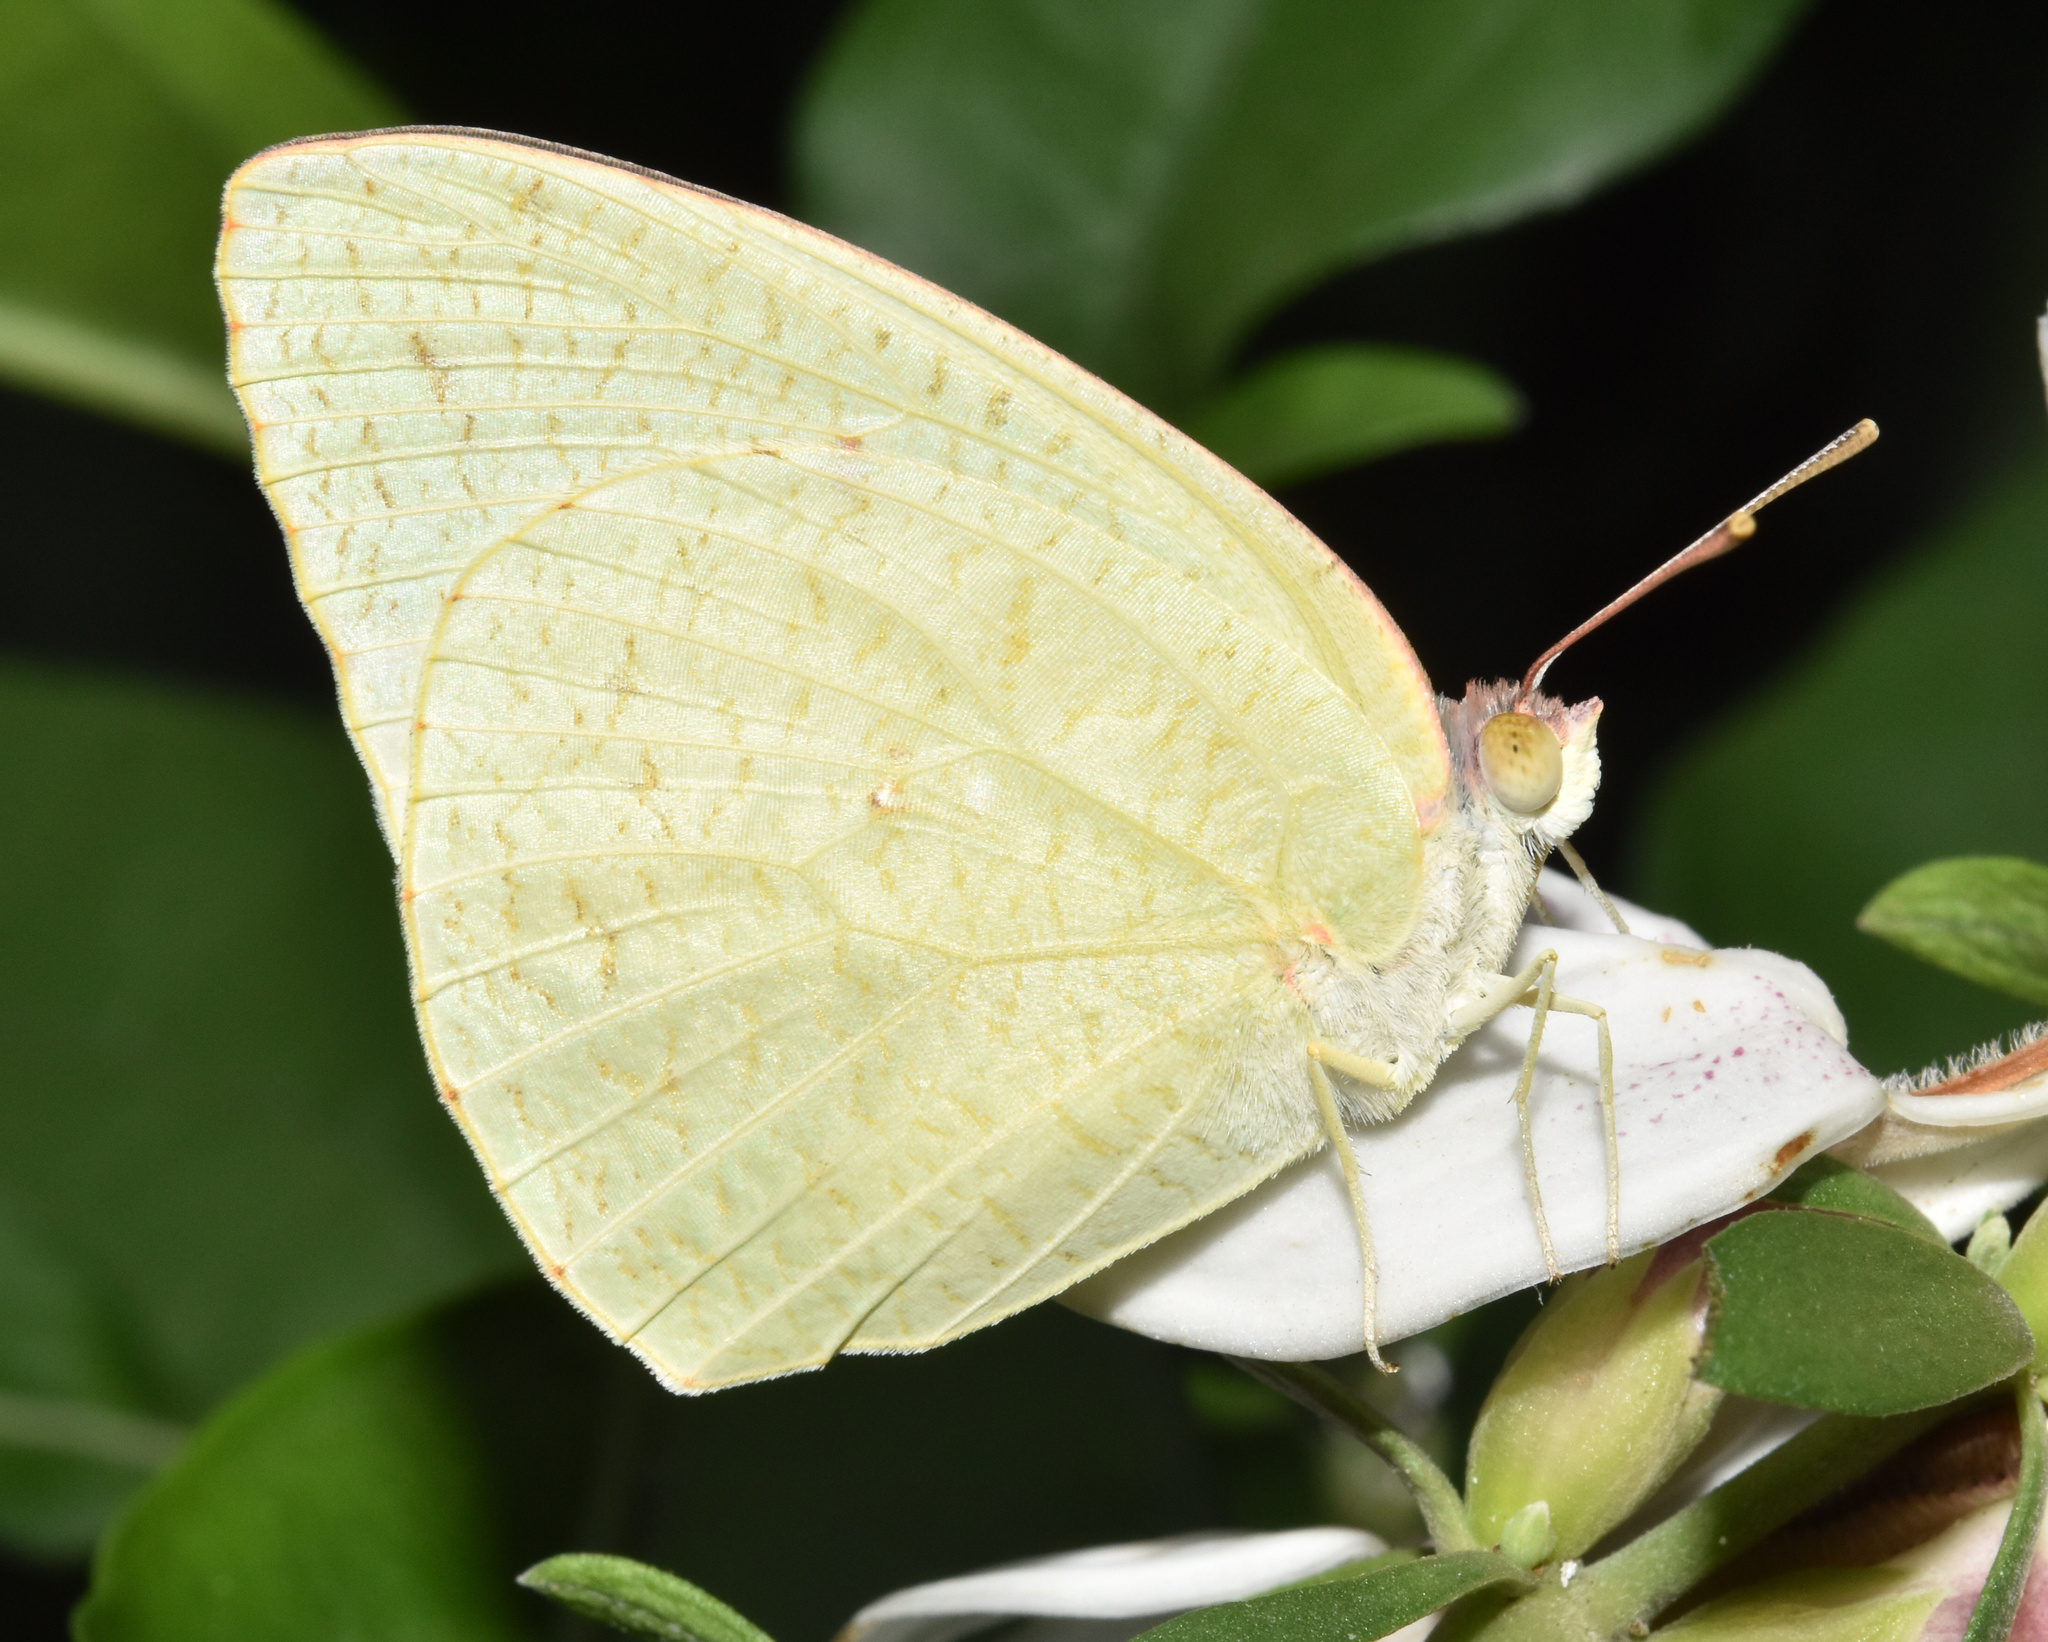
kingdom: Animalia
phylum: Arthropoda
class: Insecta
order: Lepidoptera
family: Pieridae
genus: Catopsilia
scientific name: Catopsilia florella
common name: African migrant
